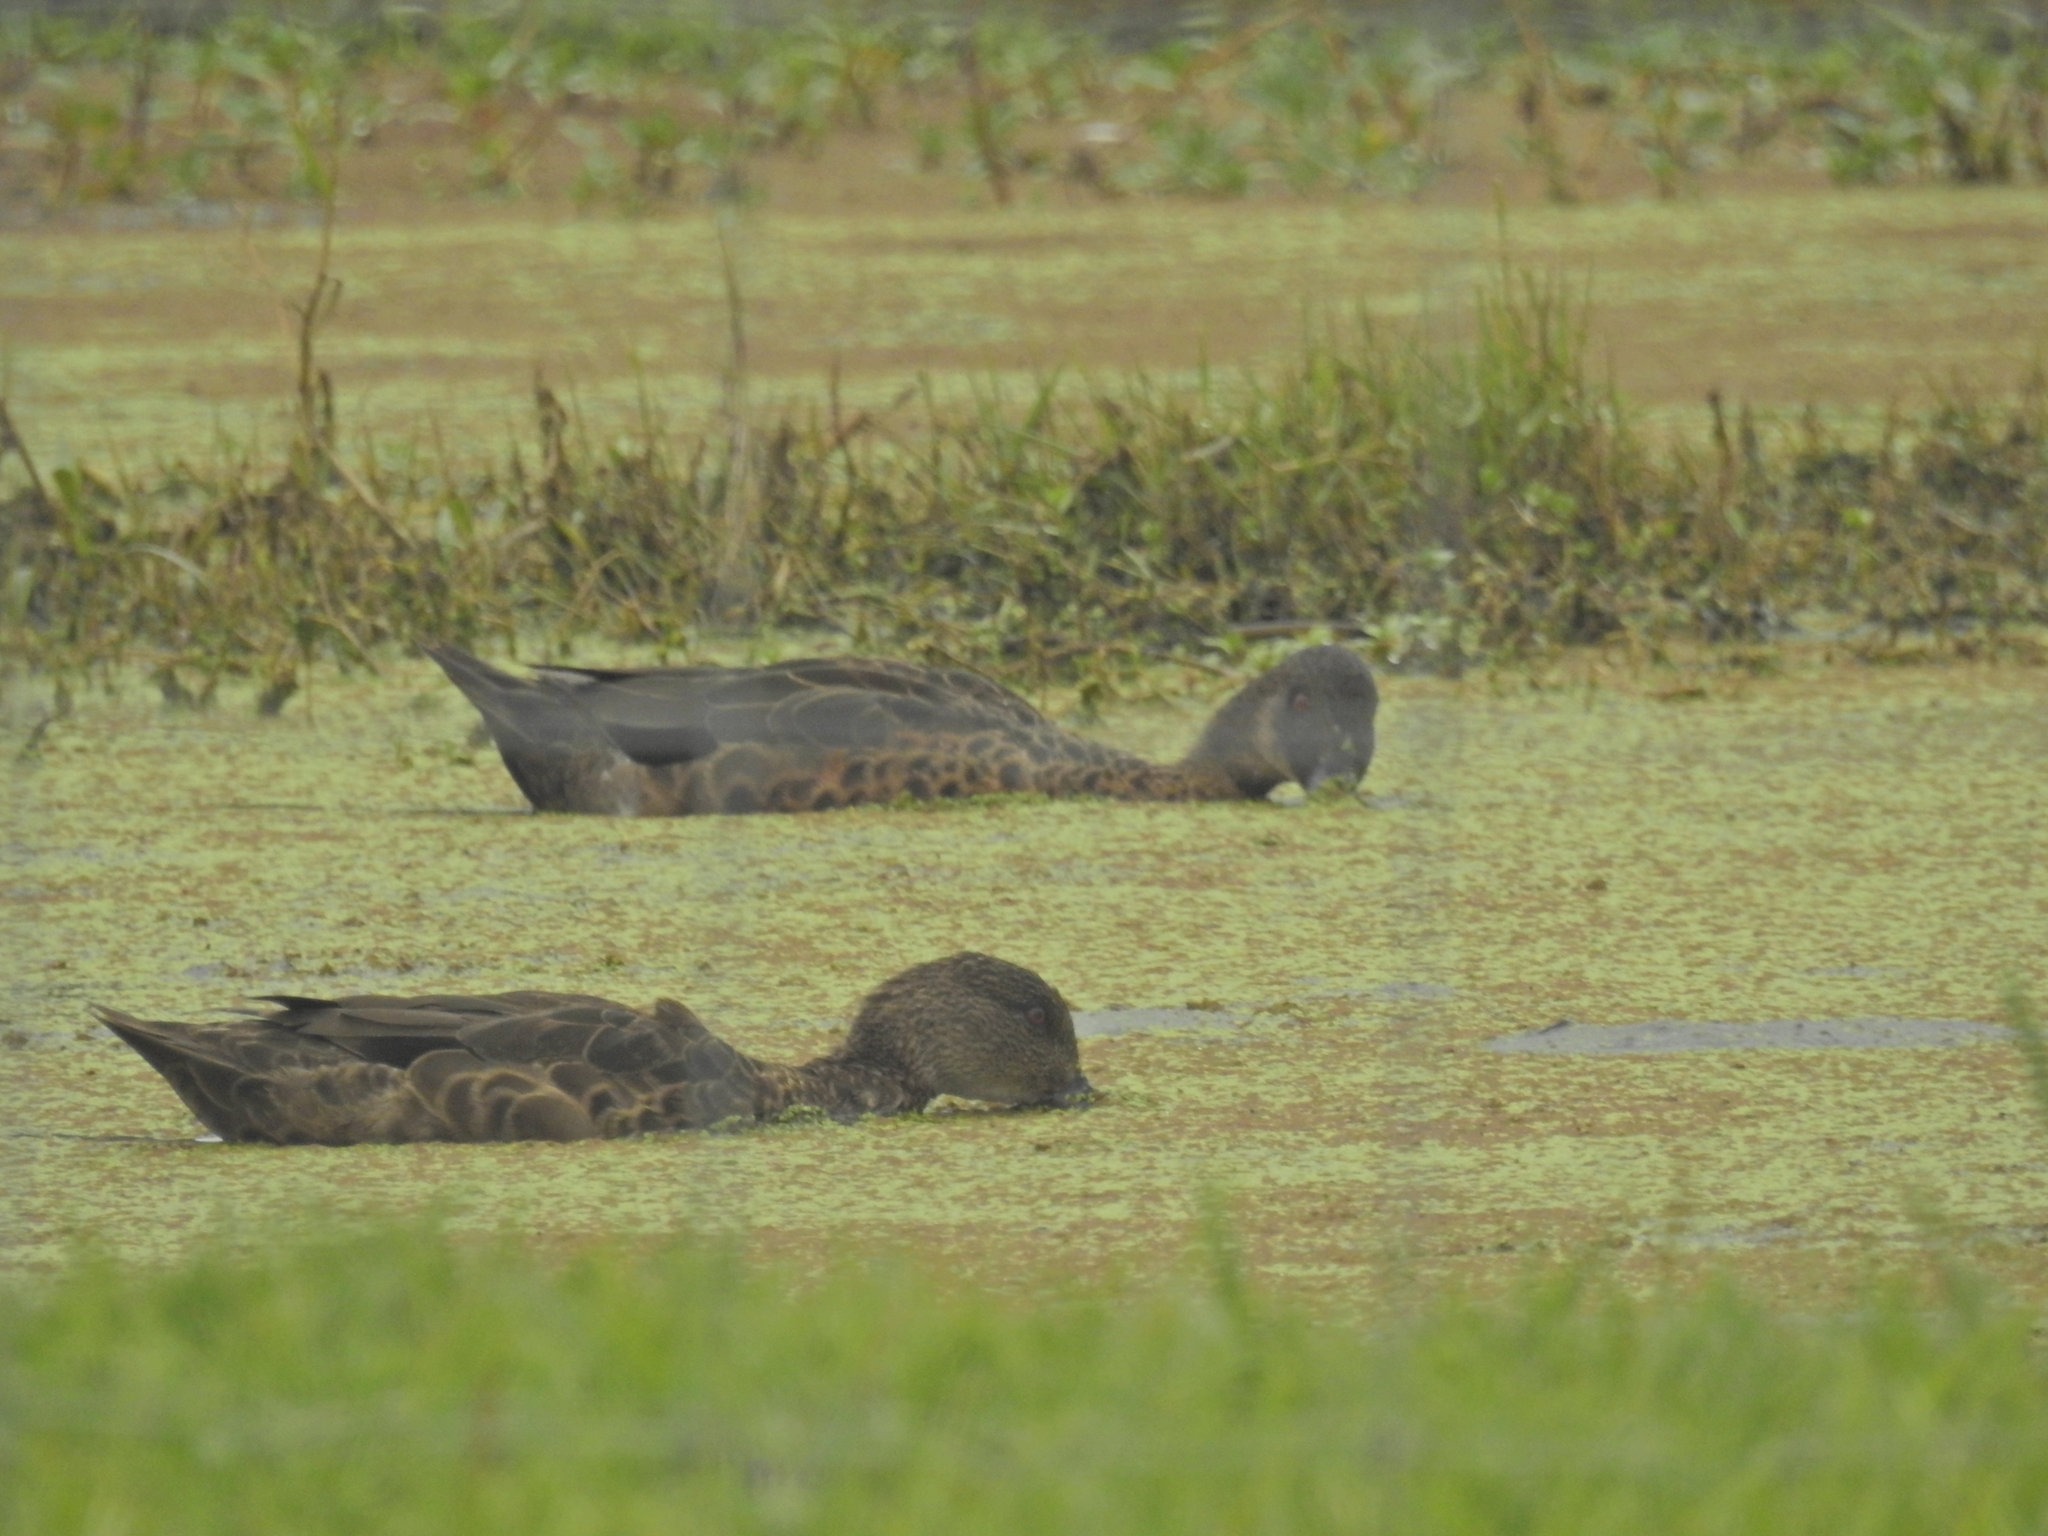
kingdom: Animalia
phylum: Chordata
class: Aves
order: Anseriformes
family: Anatidae
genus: Anas
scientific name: Anas castanea
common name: Chestnut teal
